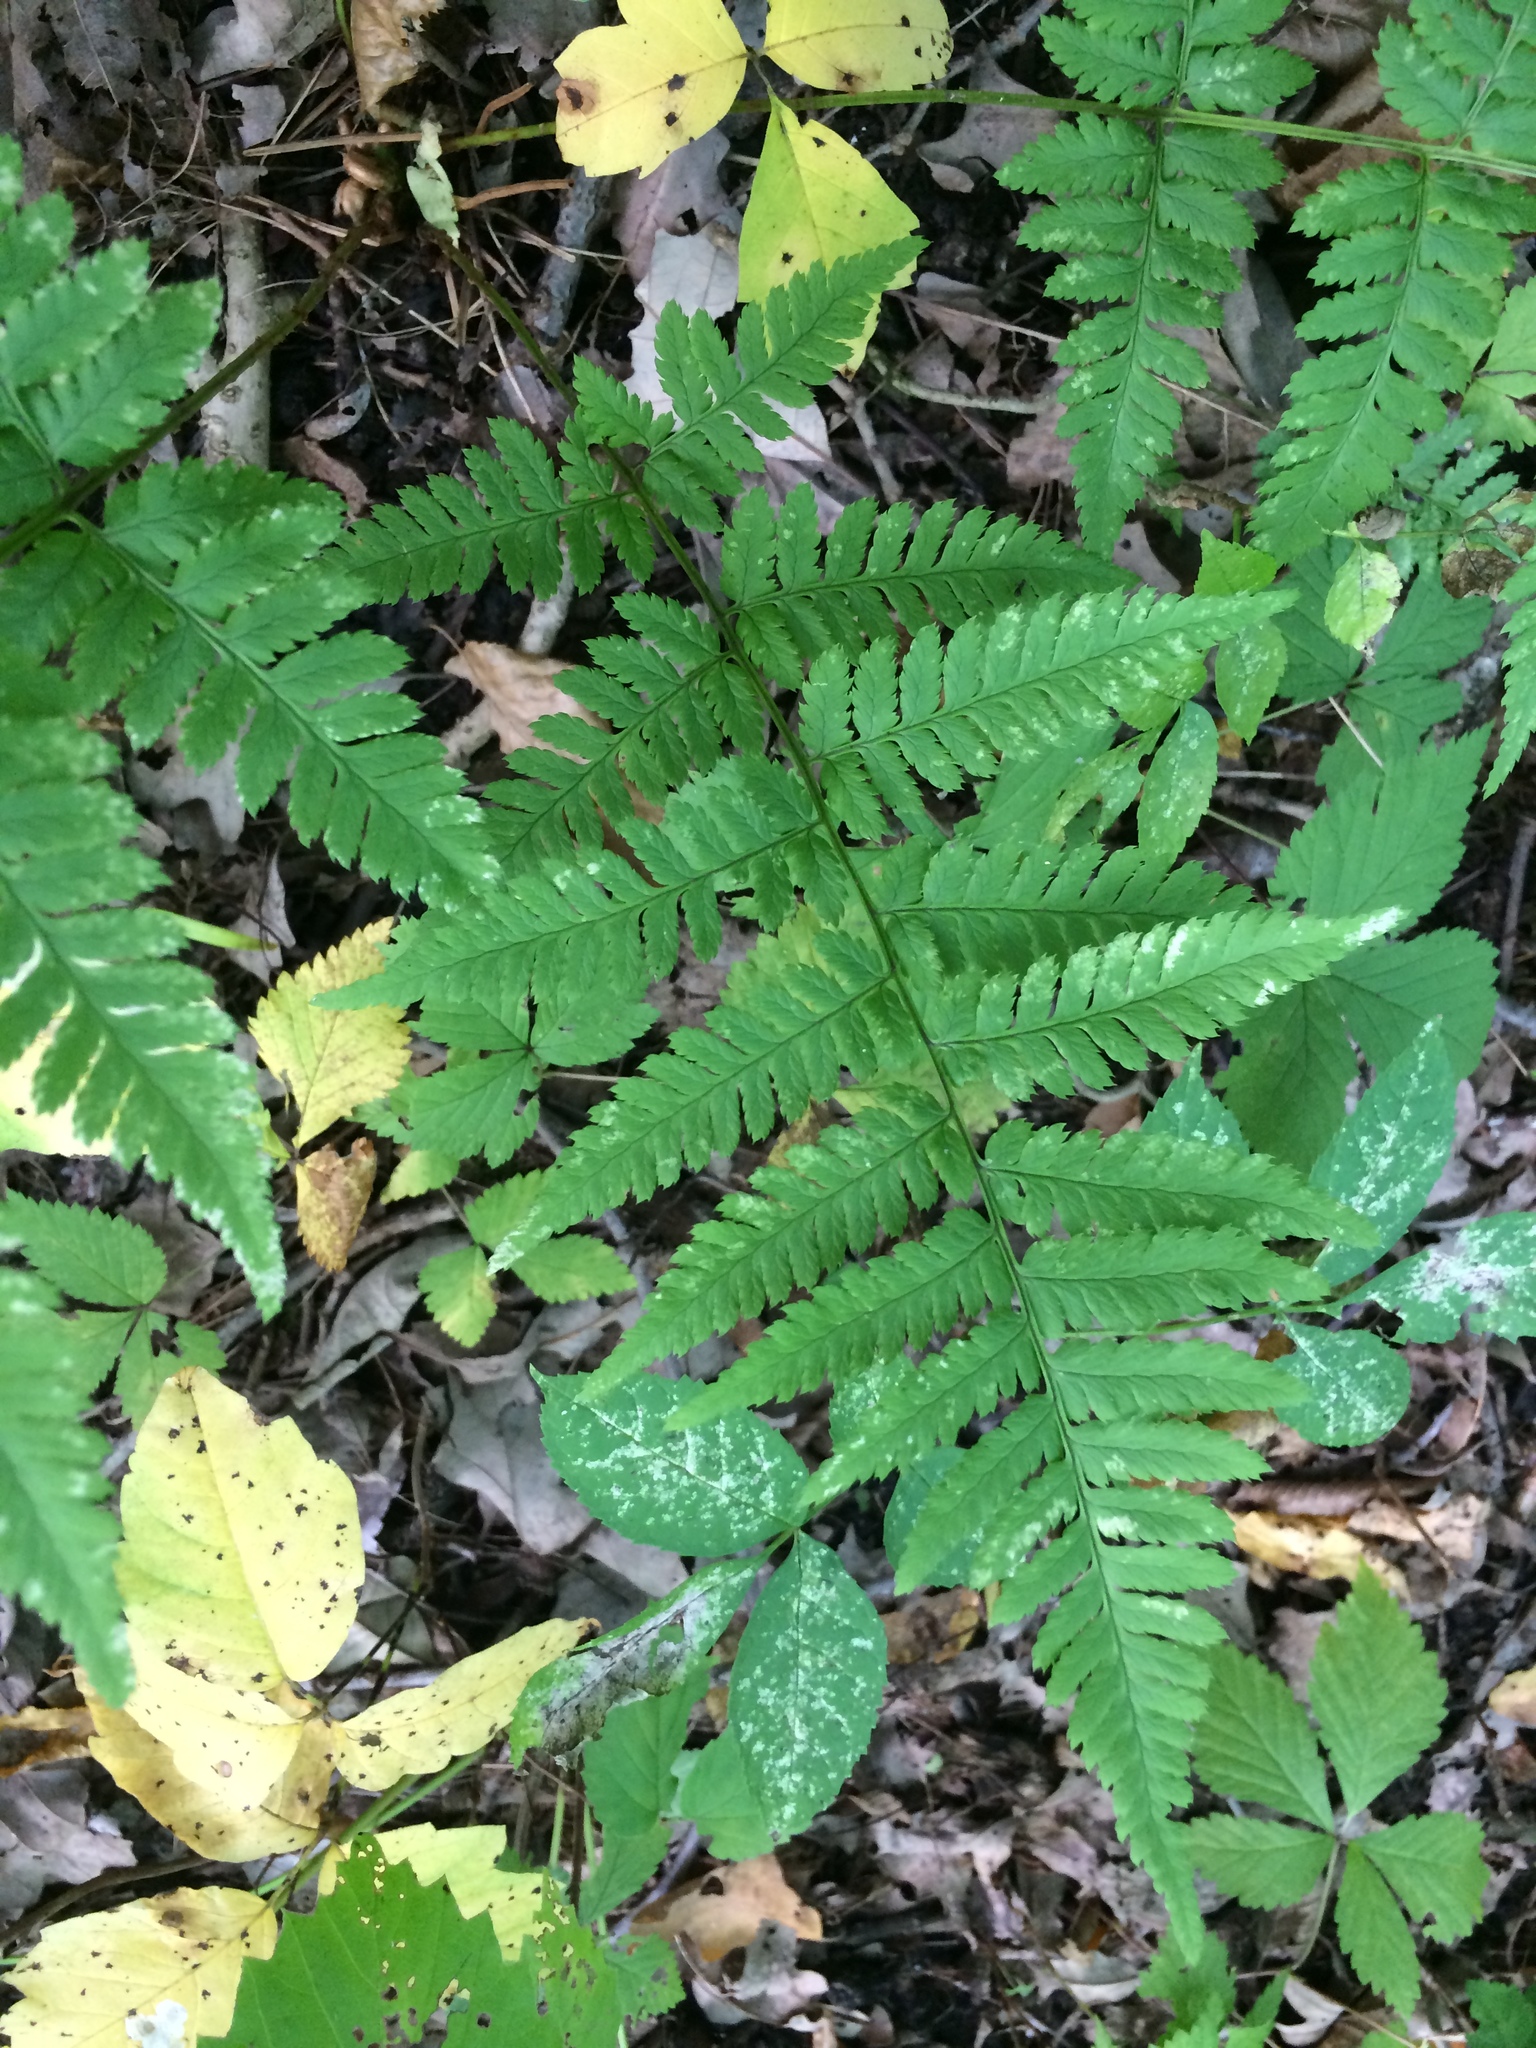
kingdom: Plantae
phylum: Tracheophyta
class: Polypodiopsida
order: Polypodiales
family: Dryopteridaceae
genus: Dryopteris
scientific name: Dryopteris carthusiana
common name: Narrow buckler-fern
